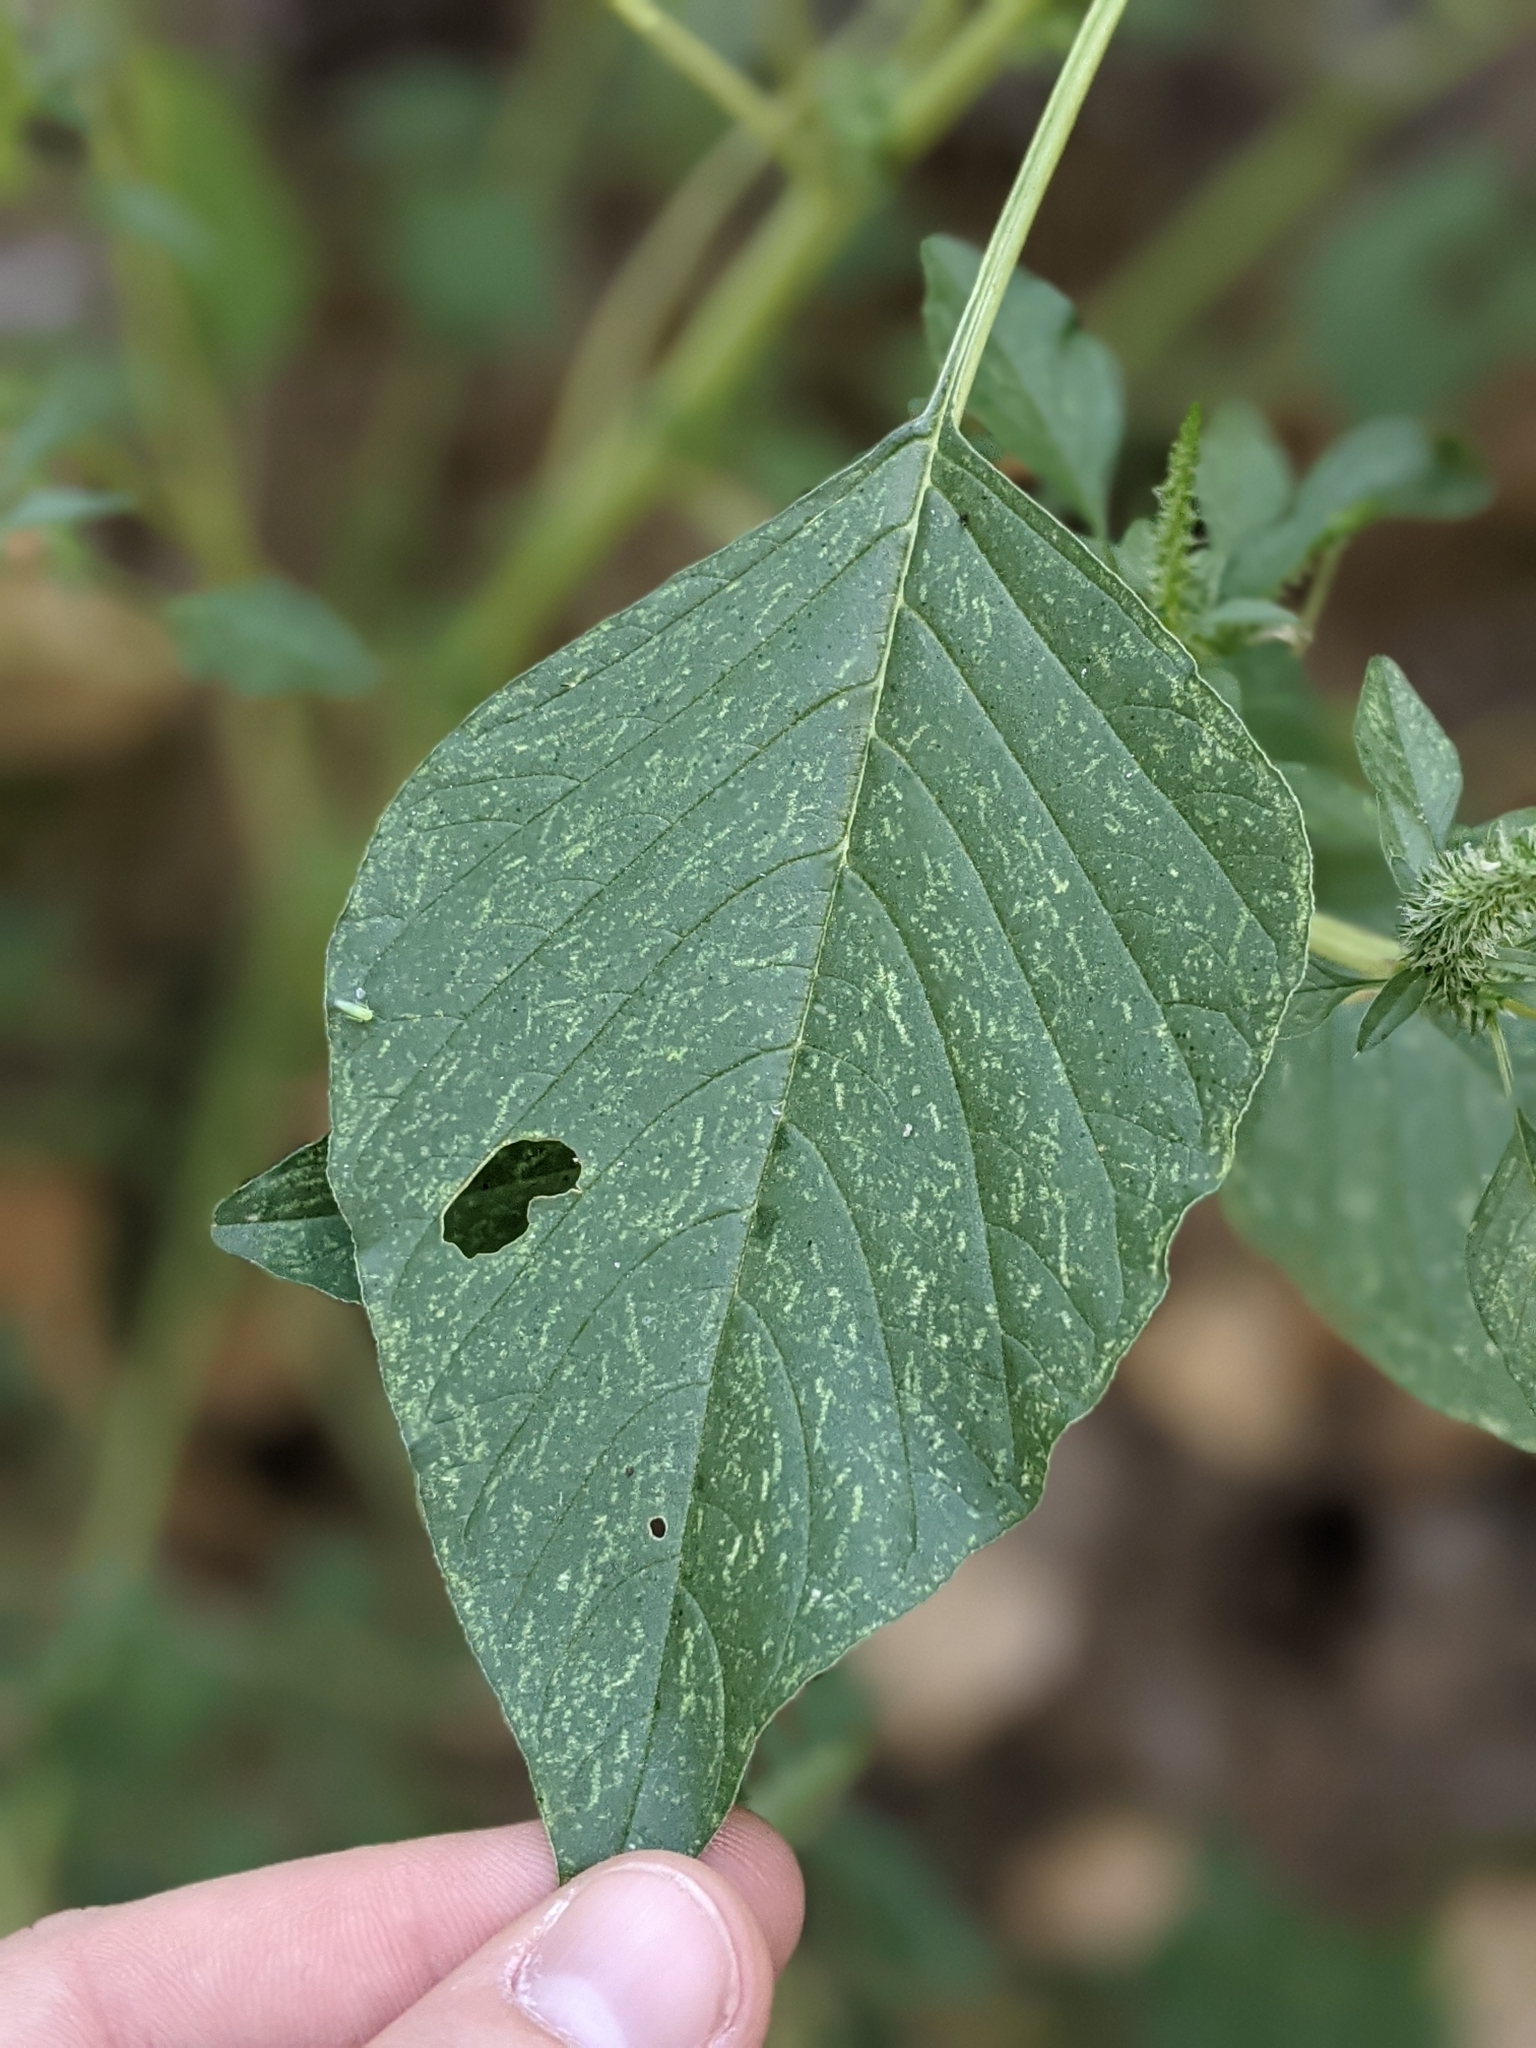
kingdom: Plantae
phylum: Tracheophyta
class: Magnoliopsida
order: Caryophyllales
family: Amaranthaceae
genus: Amaranthus
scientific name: Amaranthus palmeri
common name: Dioecious amaranth
